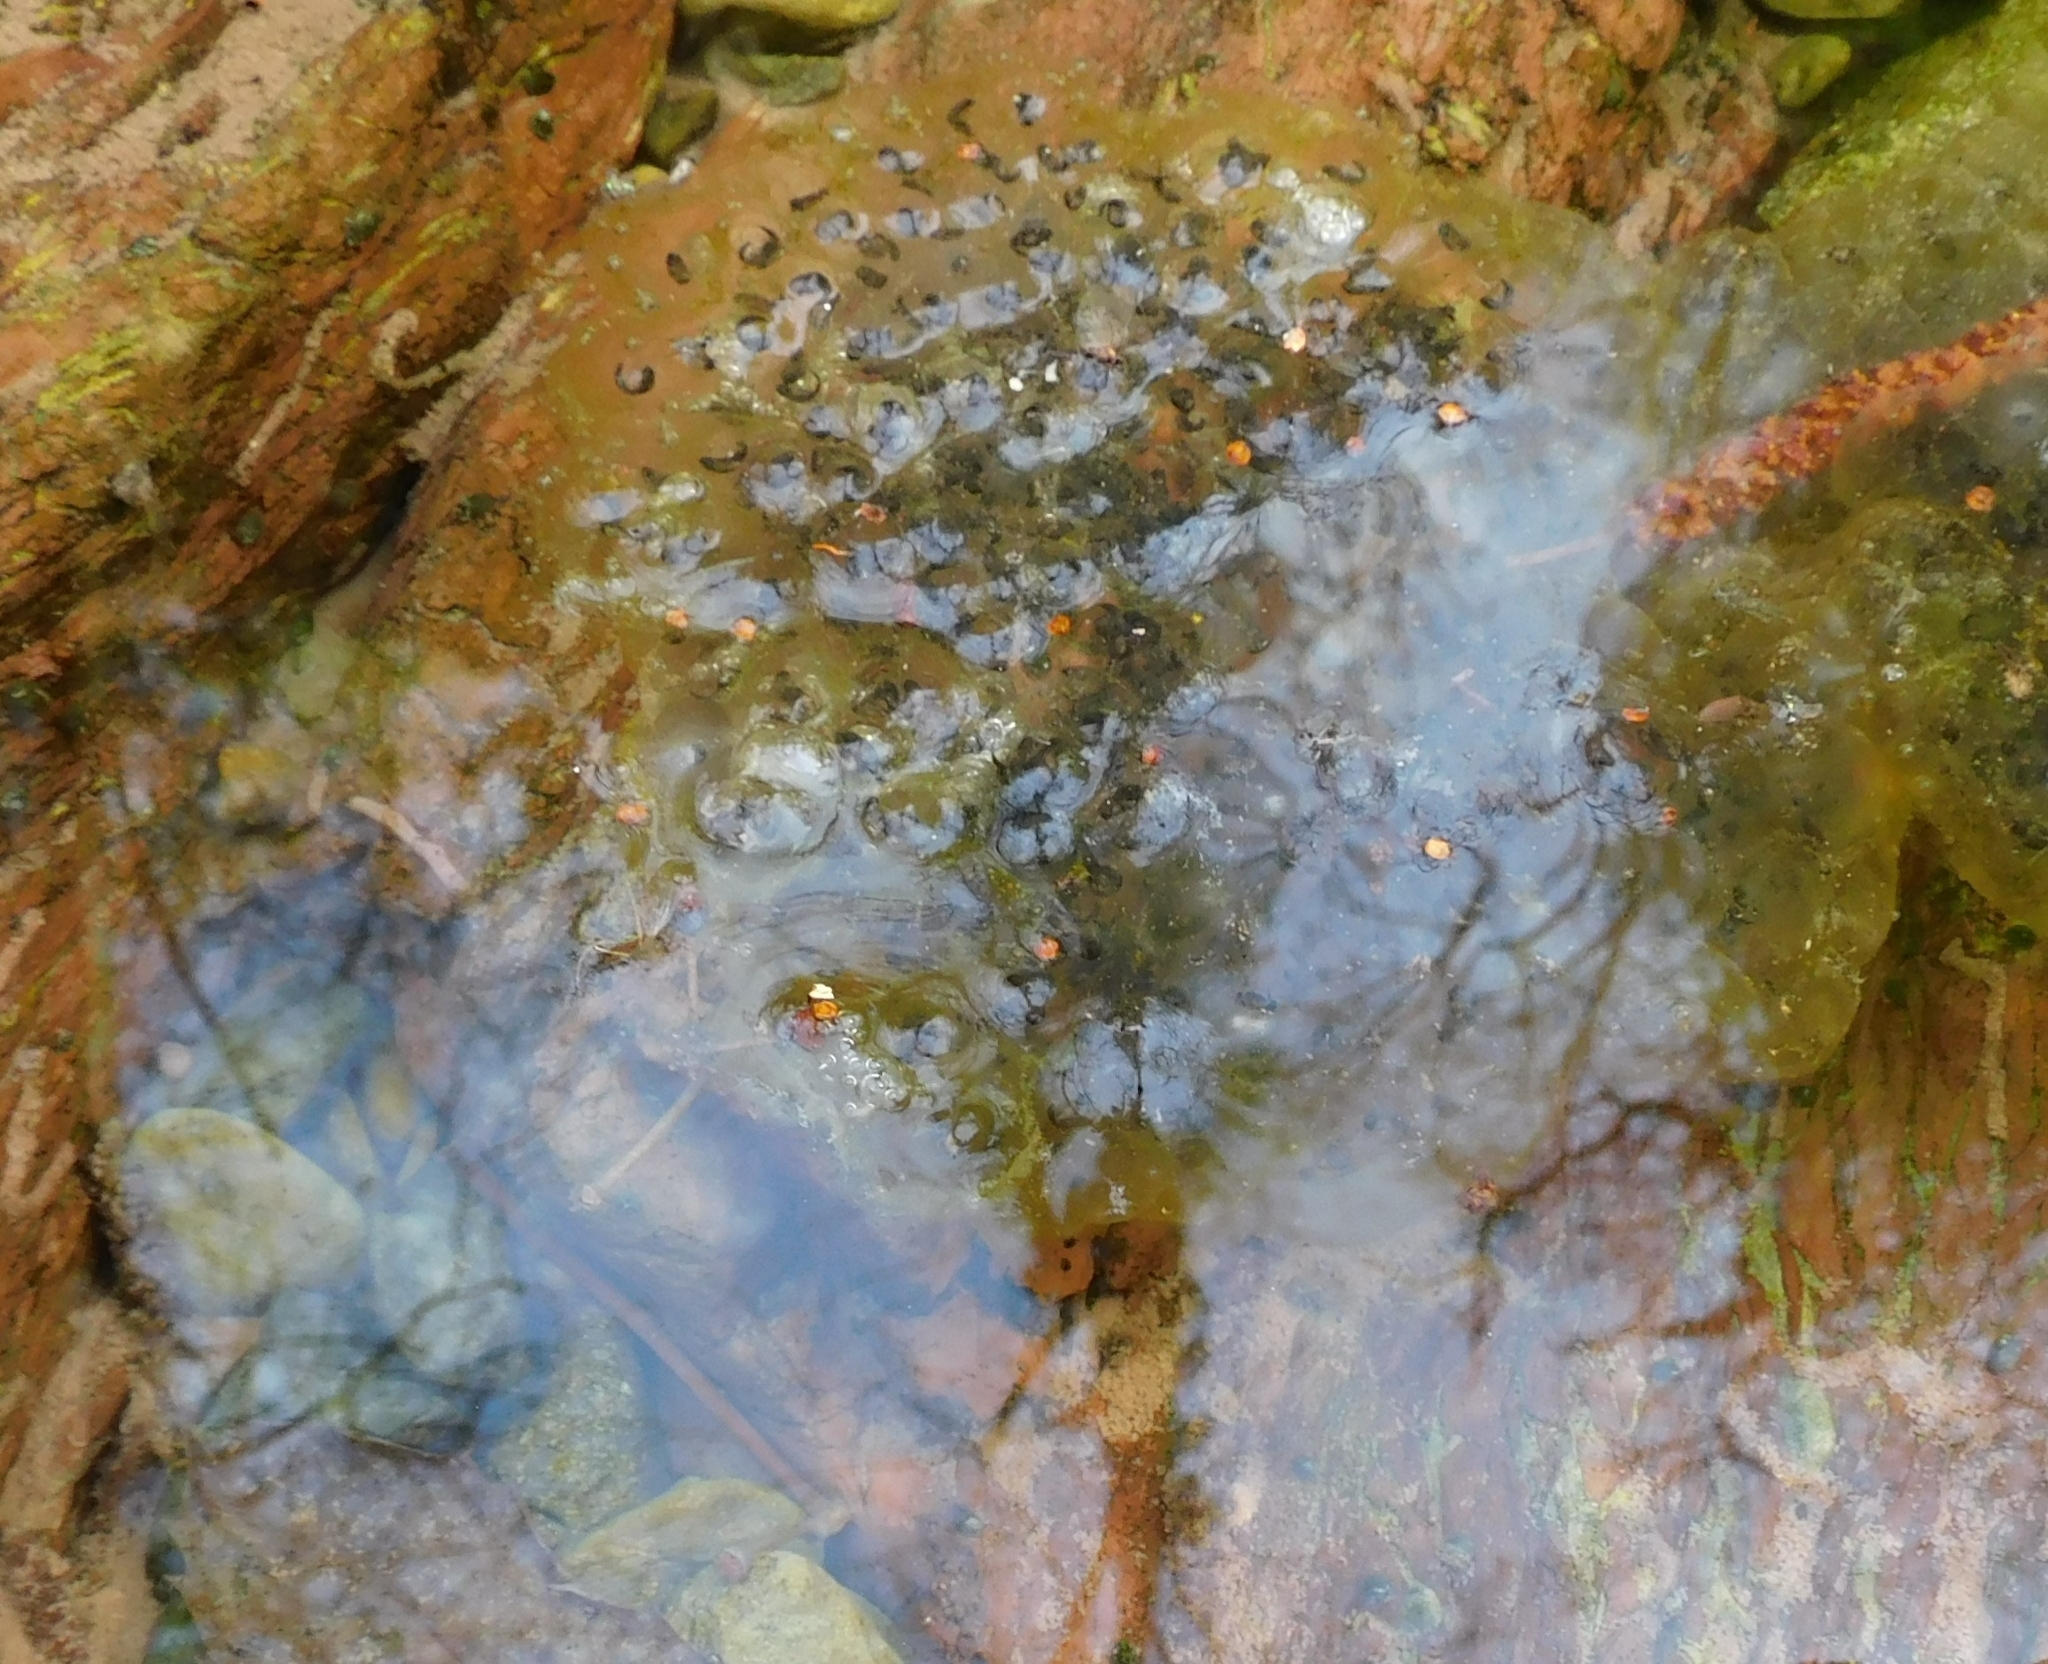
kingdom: Animalia
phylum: Chordata
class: Amphibia
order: Anura
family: Ranidae
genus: Rana
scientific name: Rana dalmatina
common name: Agile frog
